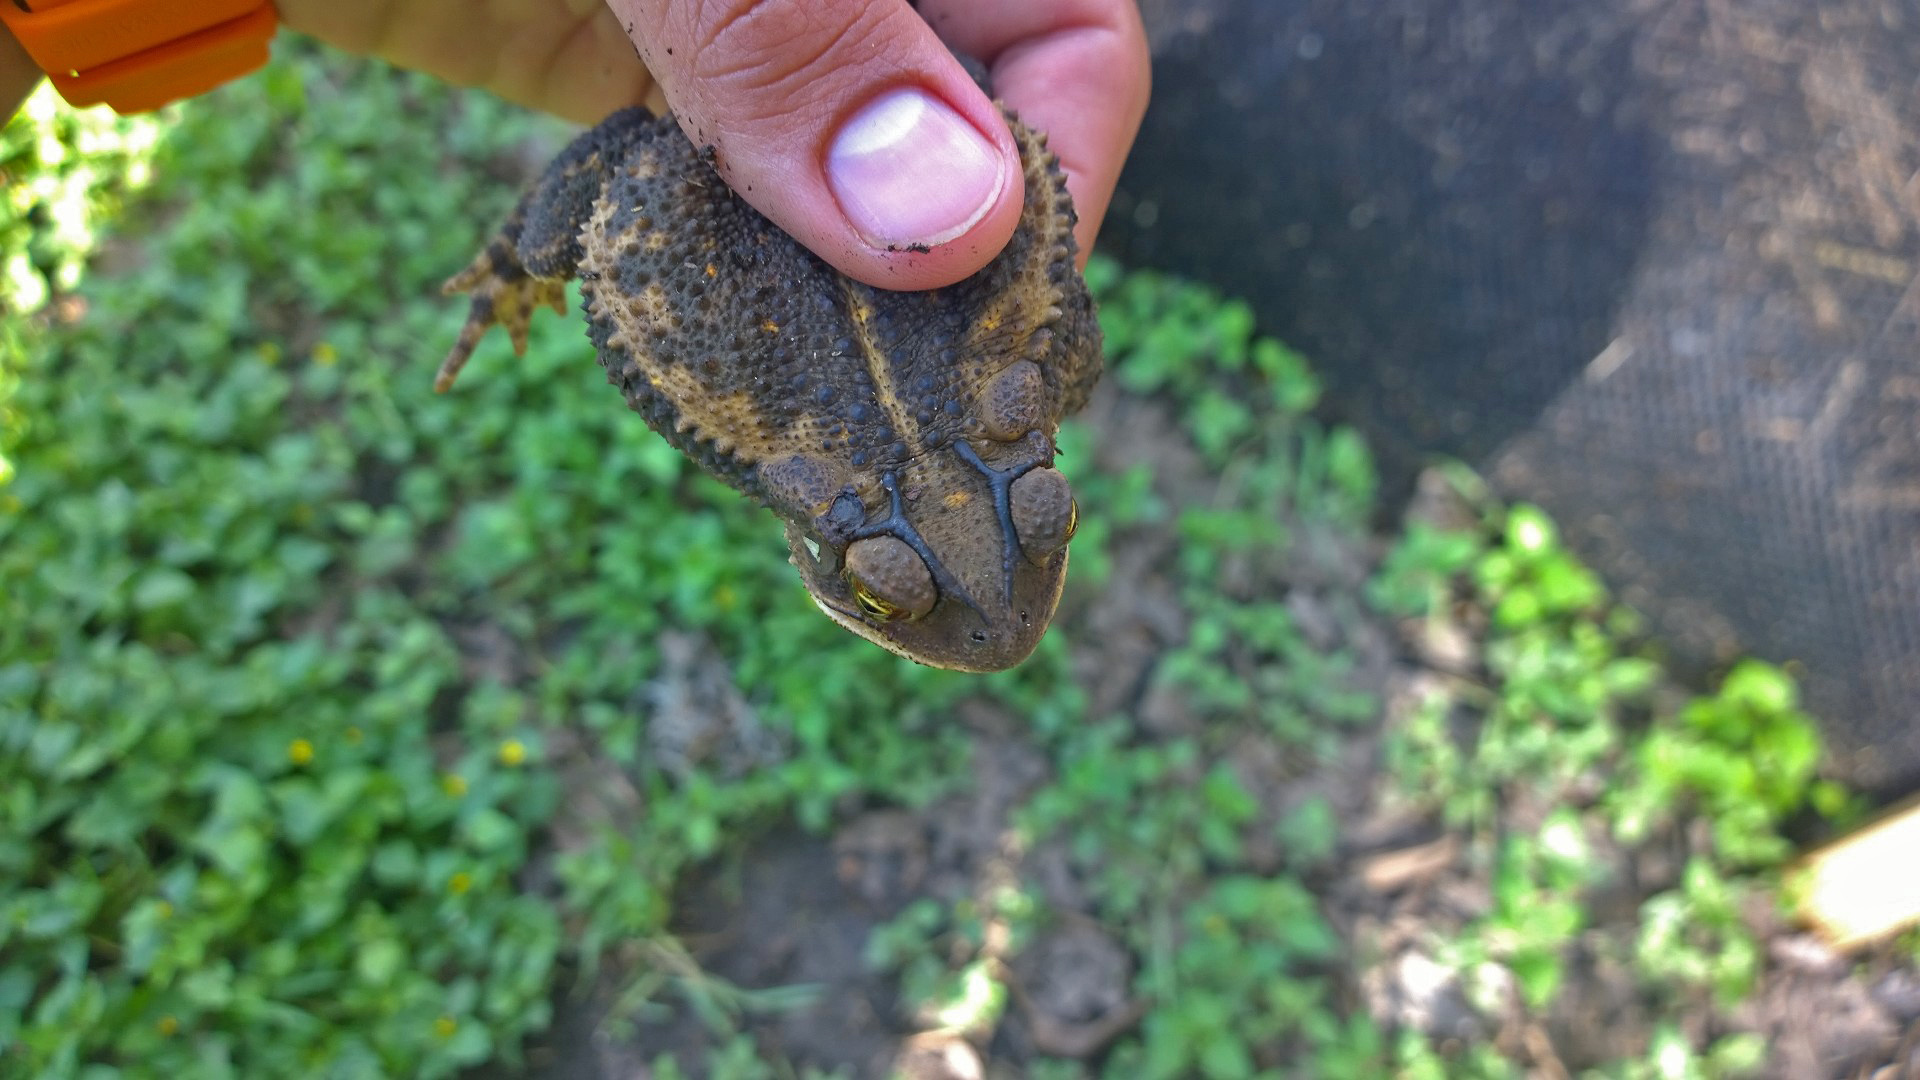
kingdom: Animalia
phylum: Chordata
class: Amphibia
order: Anura
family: Bufonidae
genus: Incilius
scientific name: Incilius nebulifer
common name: Gulf coast toad
